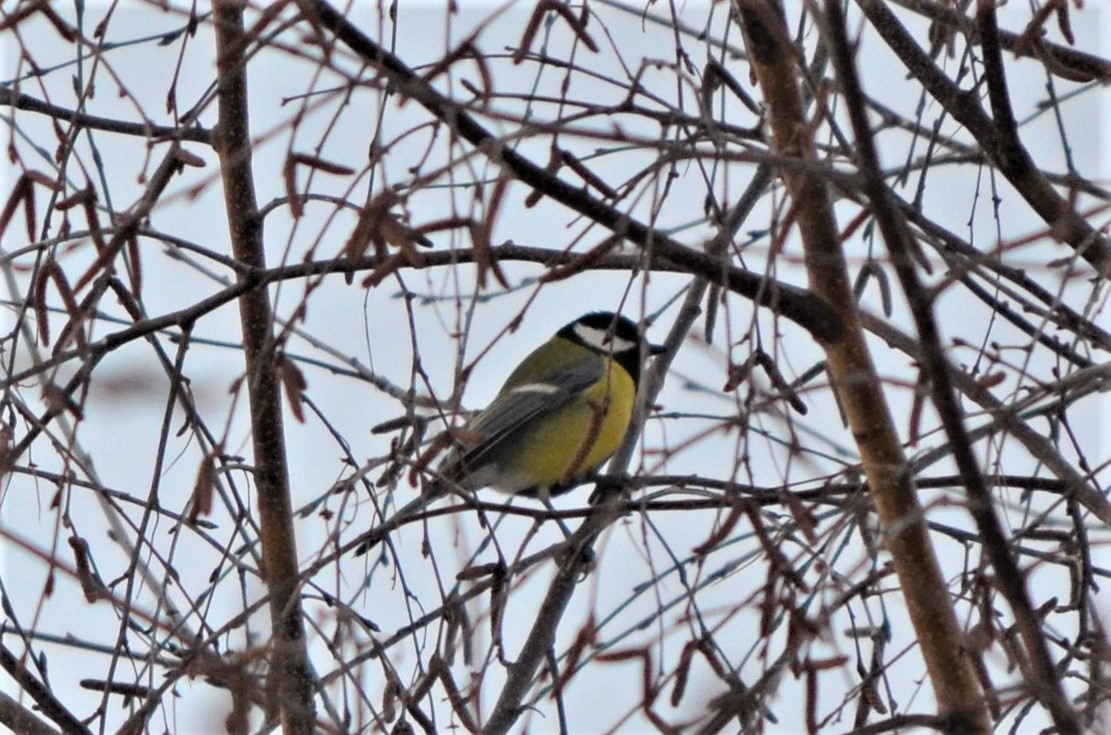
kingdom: Animalia
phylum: Chordata
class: Aves
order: Passeriformes
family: Paridae
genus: Parus
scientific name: Parus major
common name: Great tit
